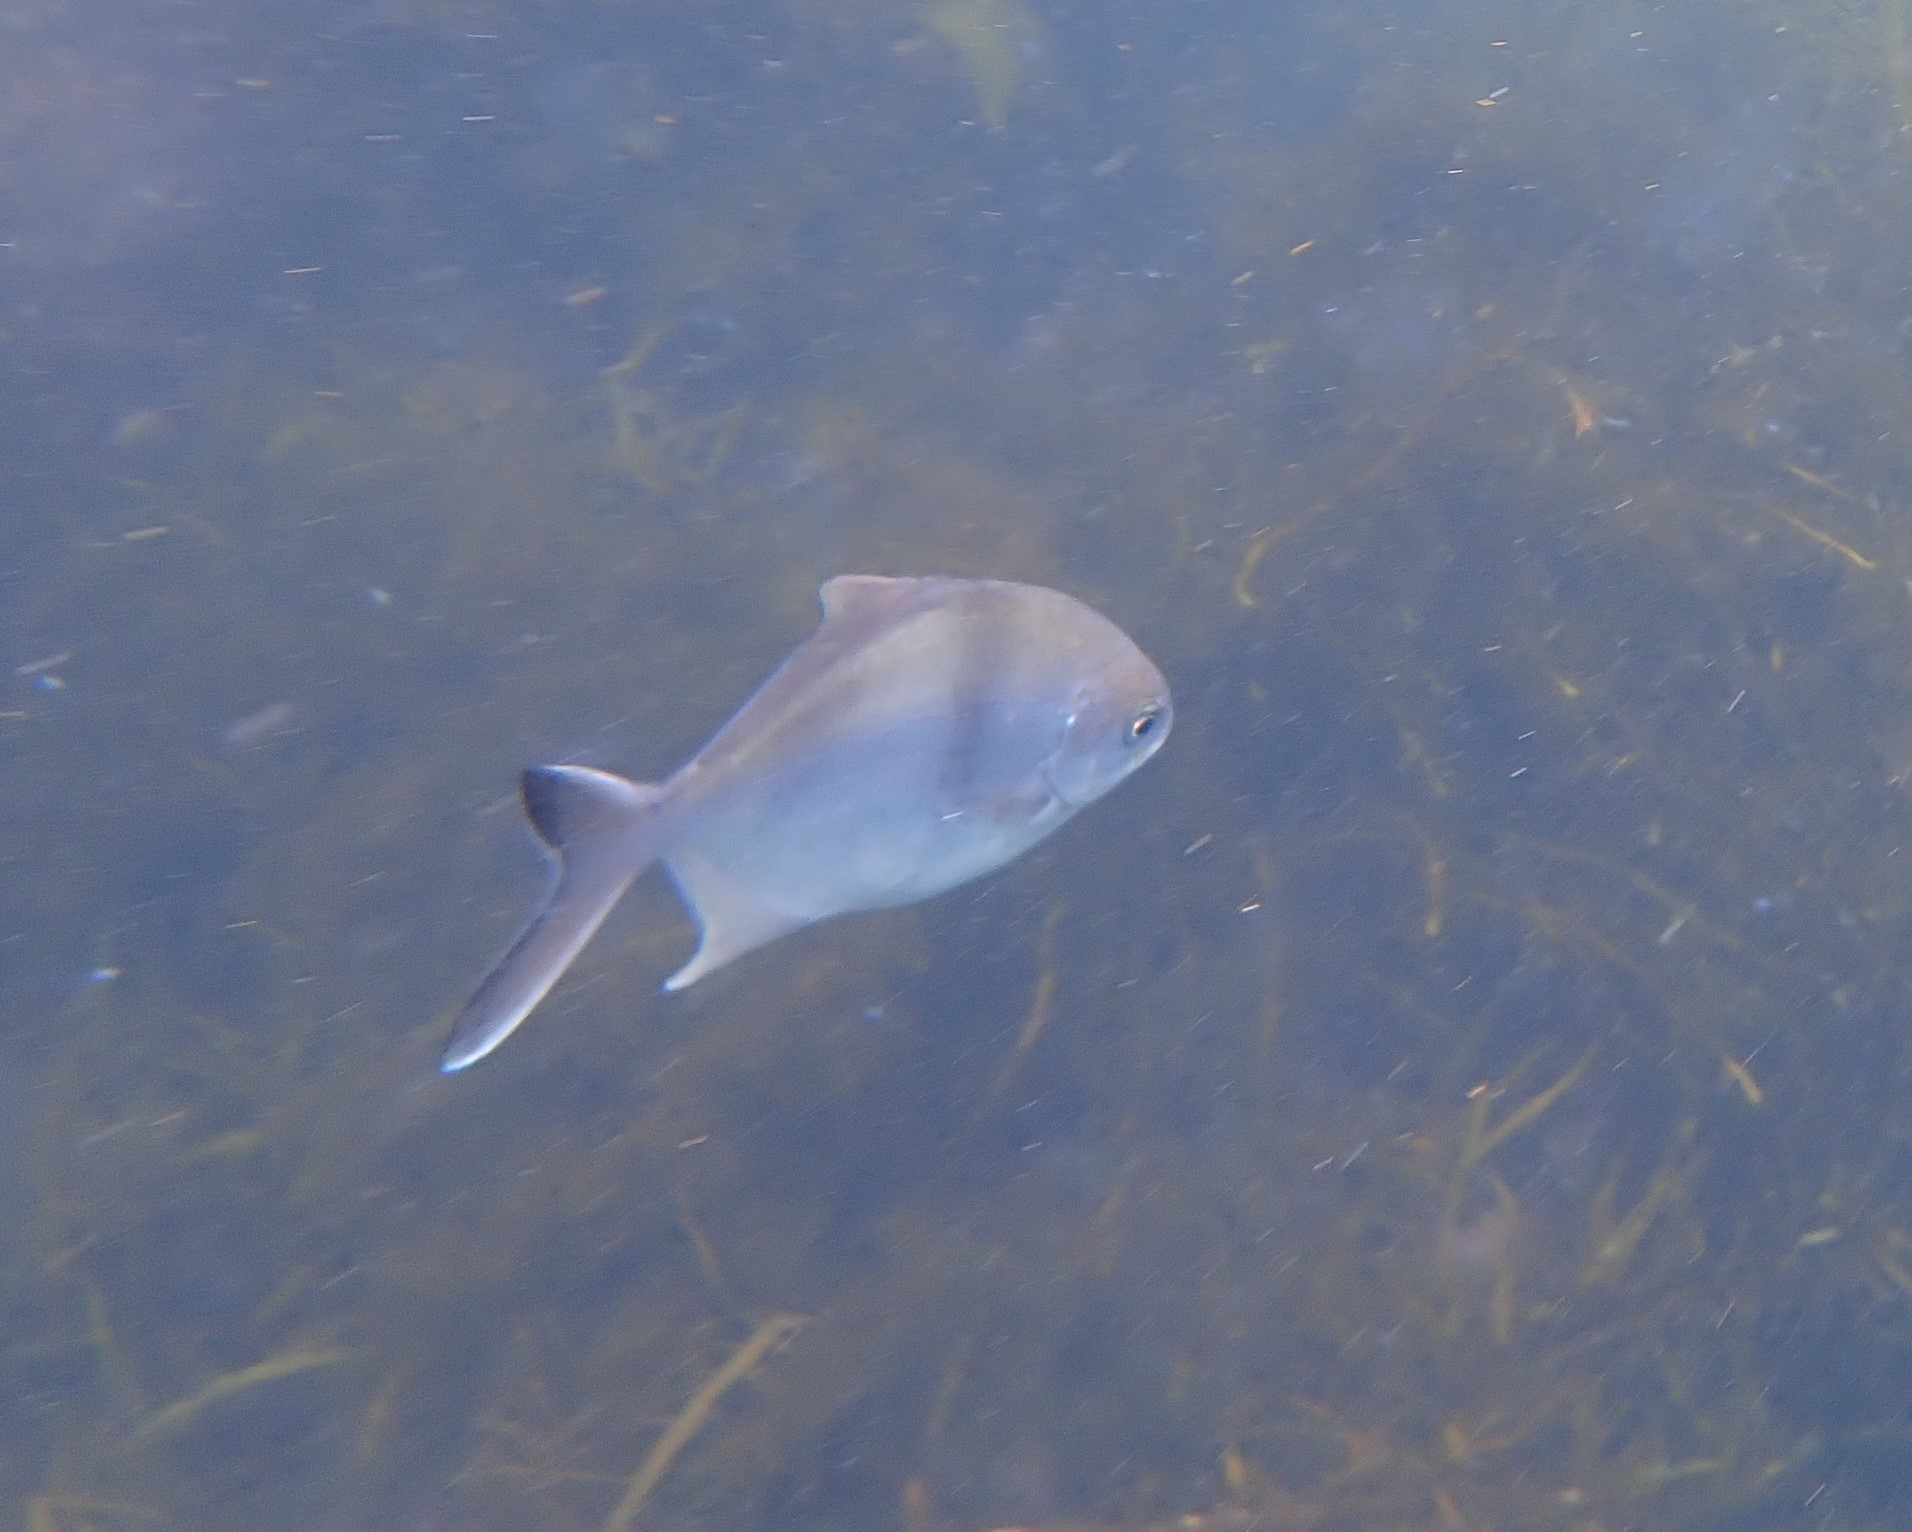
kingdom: Animalia
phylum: Chordata
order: Perciformes
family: Kyphosidae
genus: Scorpis
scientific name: Scorpis aequipinnis
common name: Sea sweep
